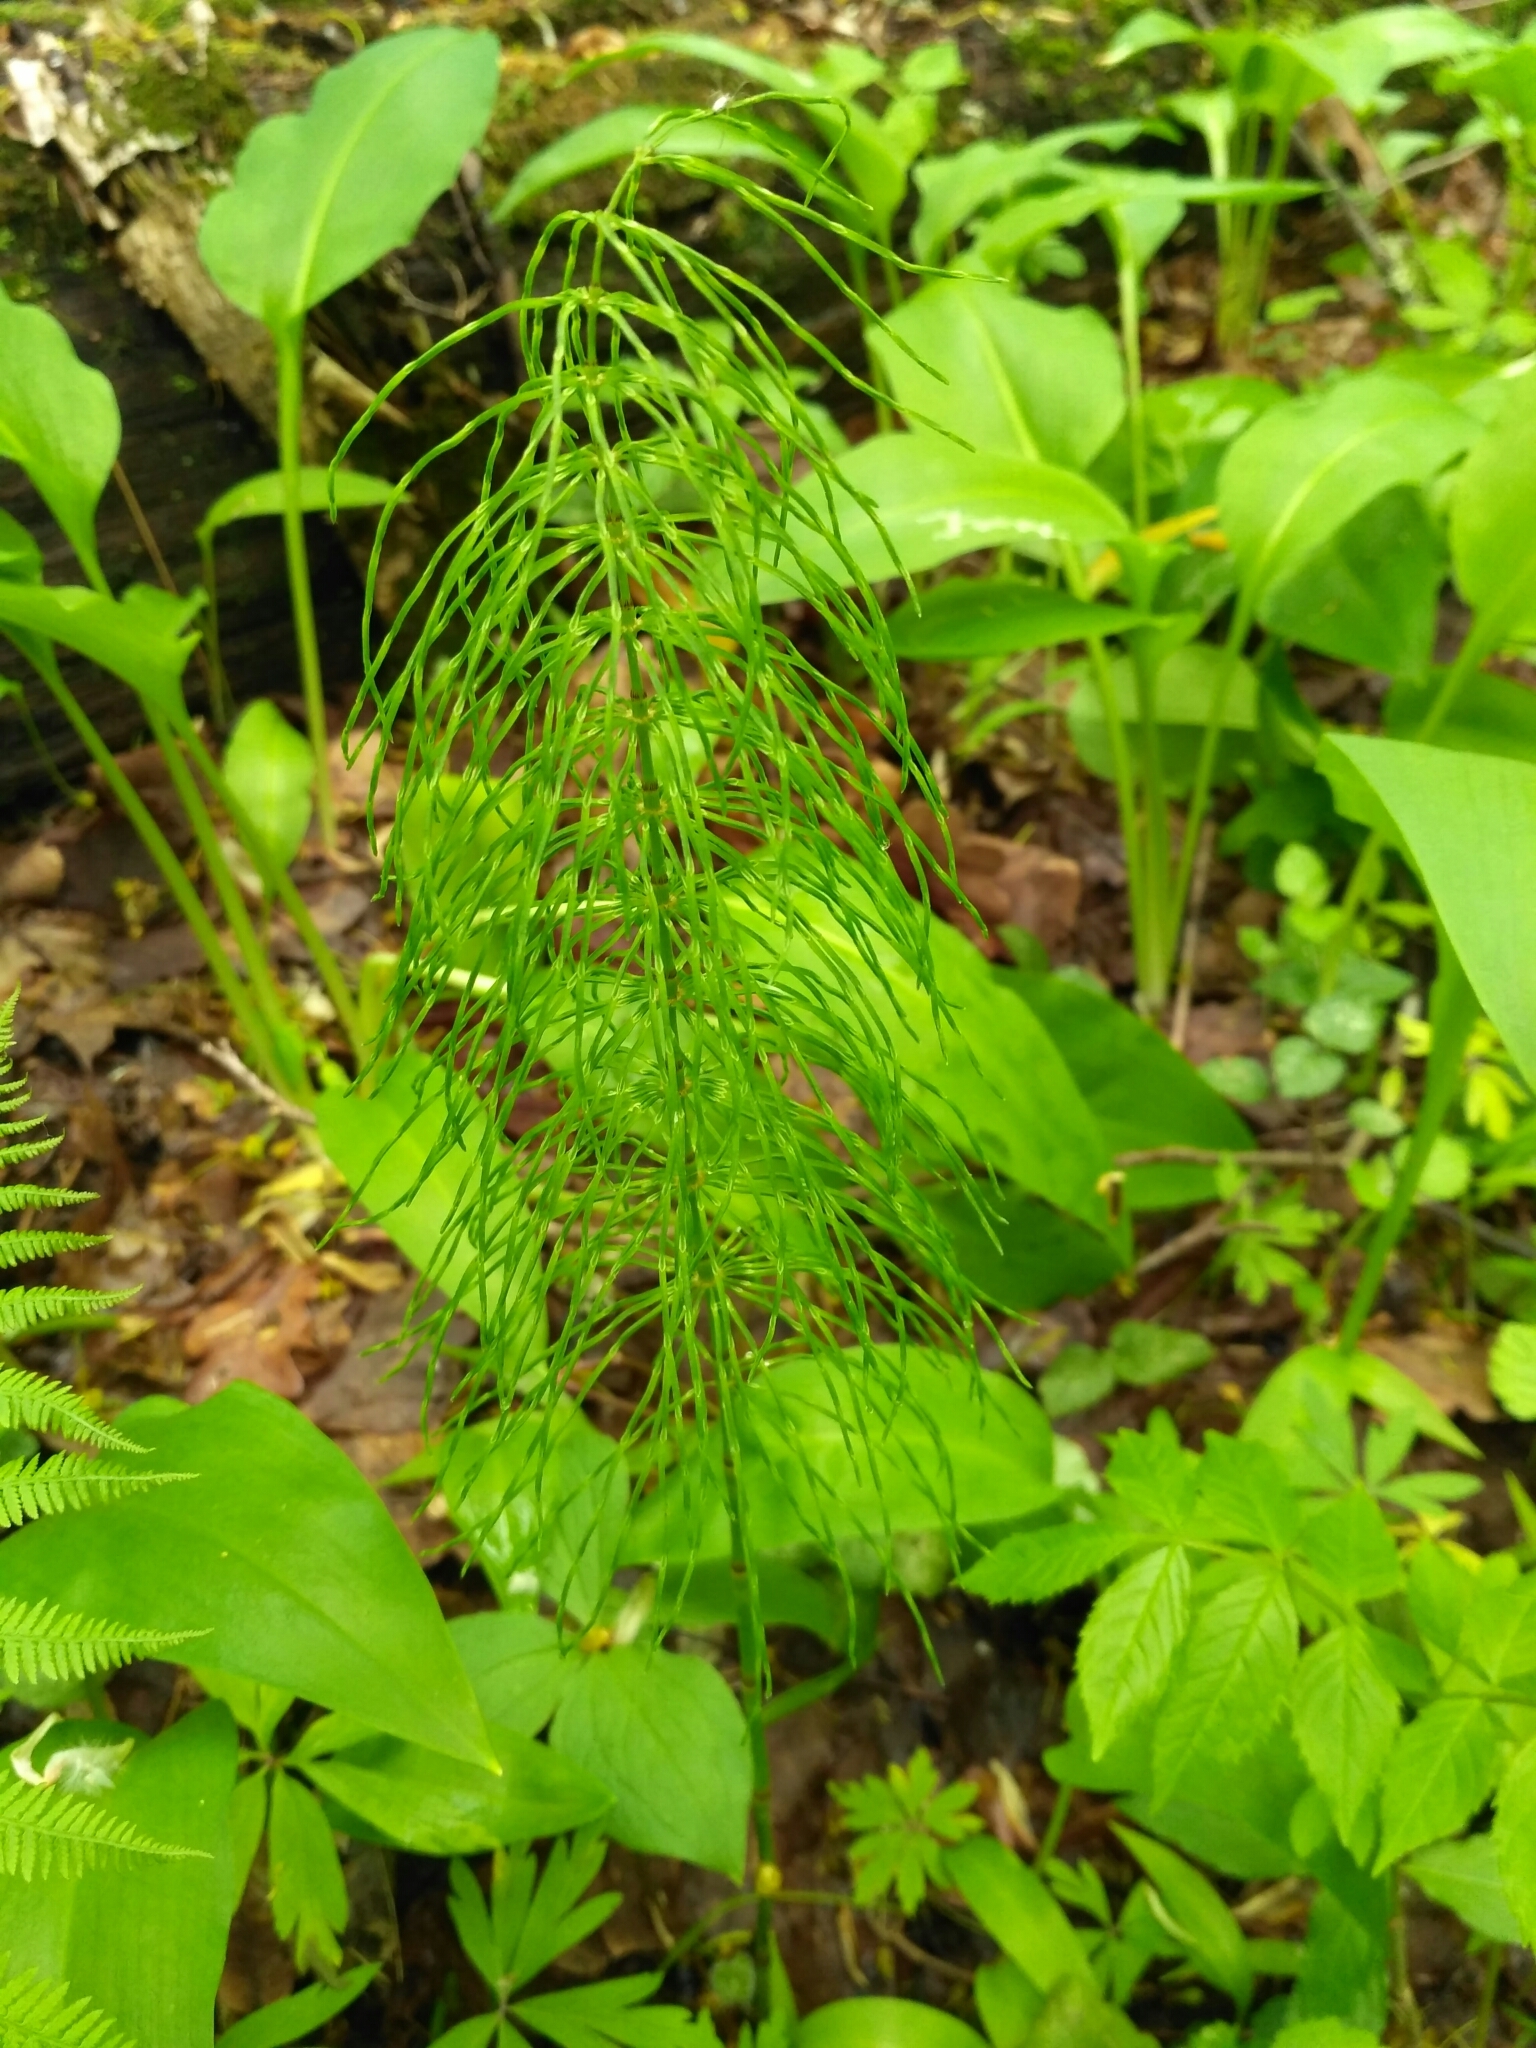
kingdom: Plantae
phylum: Tracheophyta
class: Polypodiopsida
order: Equisetales
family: Equisetaceae
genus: Equisetum
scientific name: Equisetum pratense
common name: Meadow horsetail
